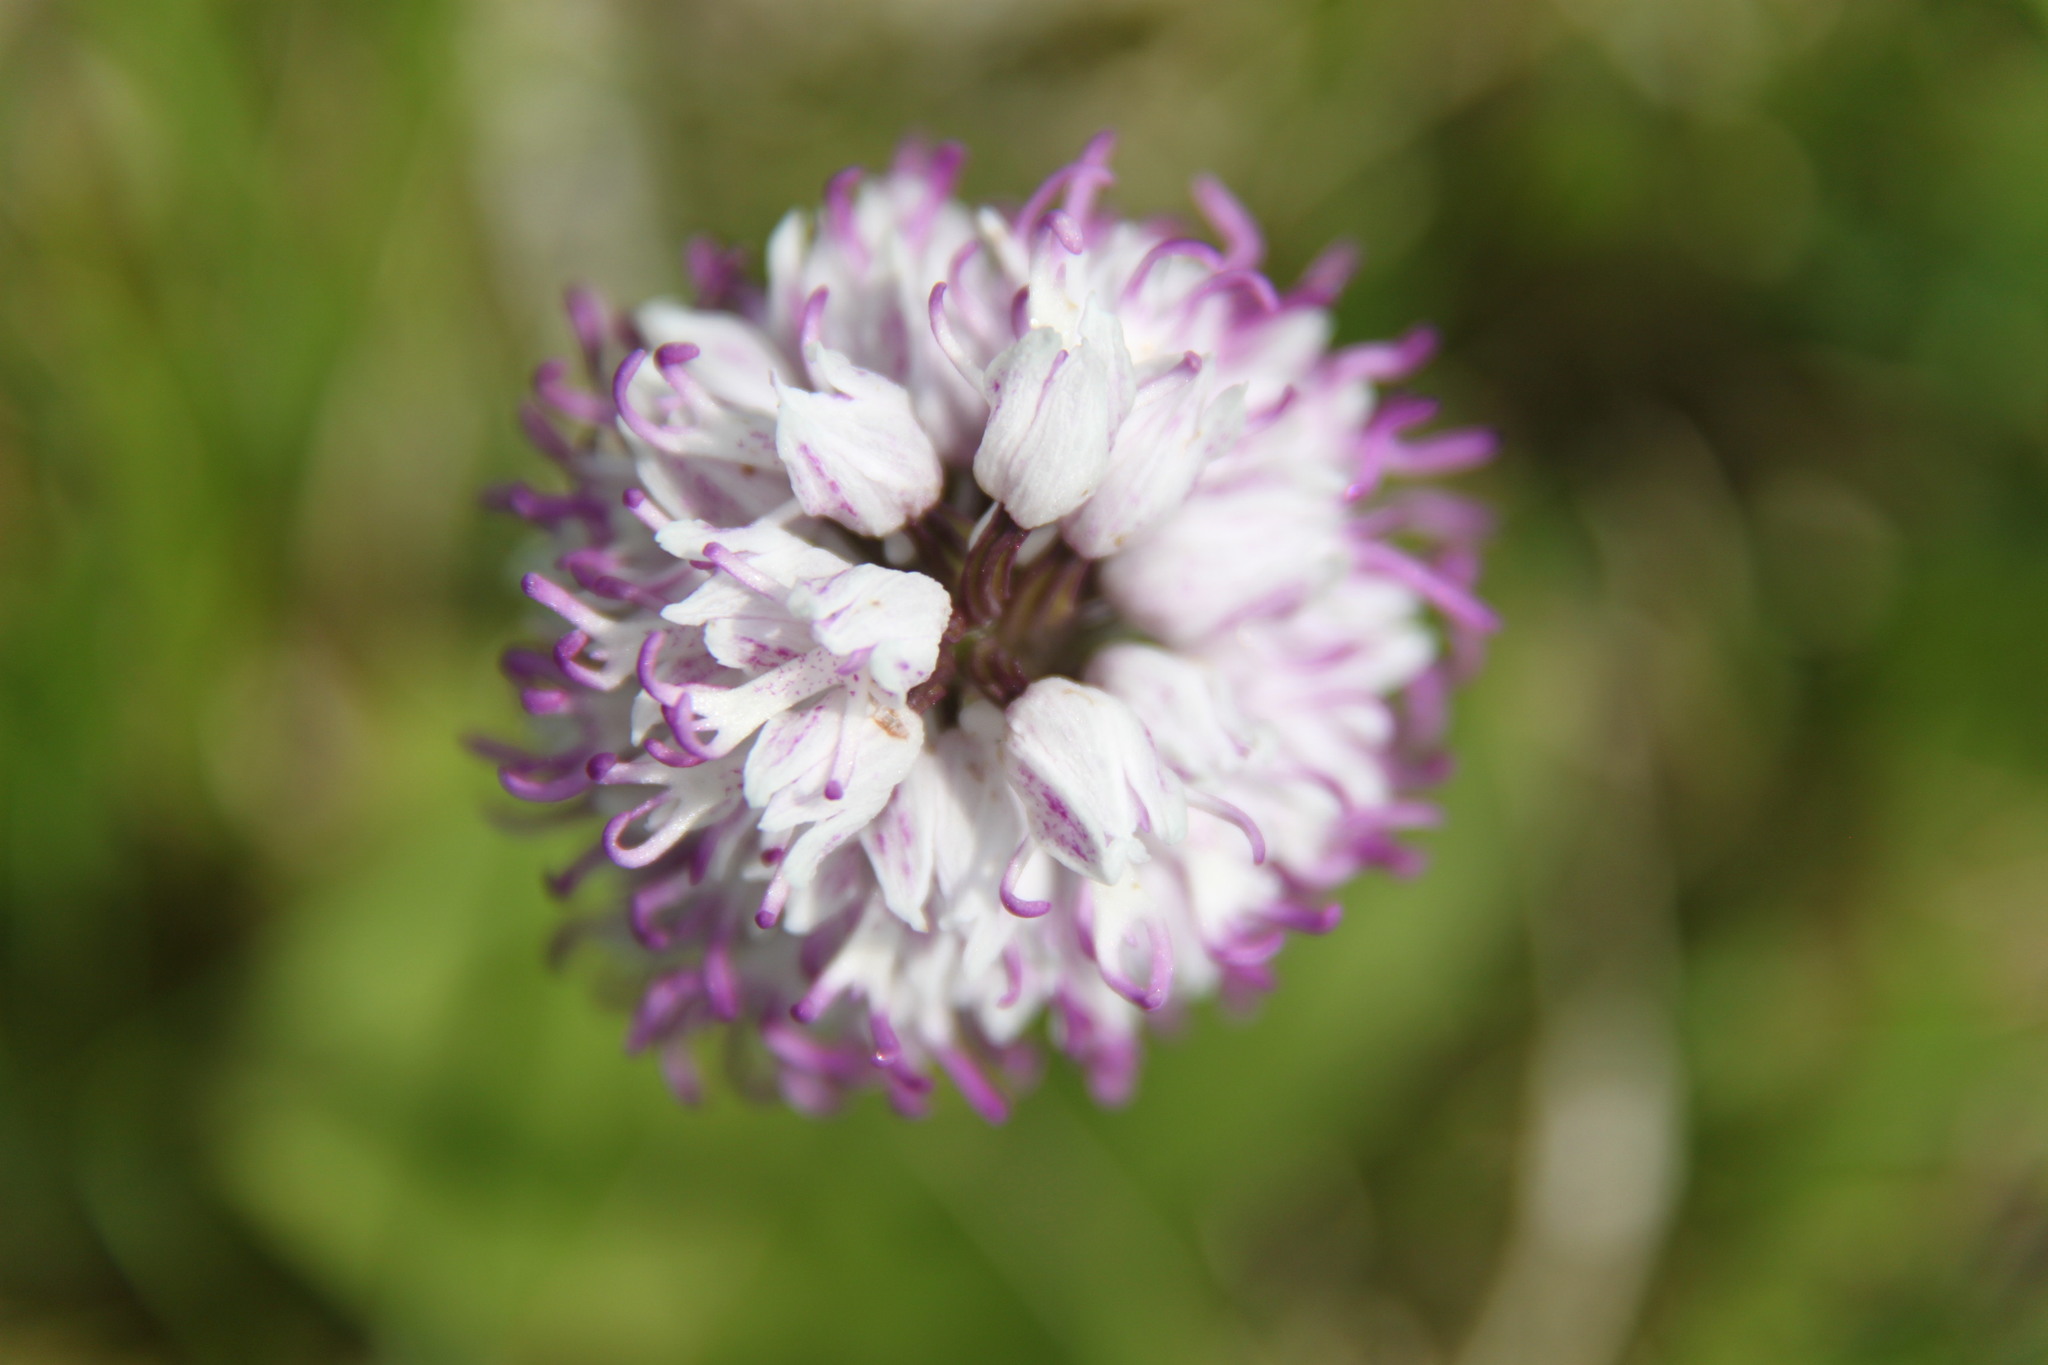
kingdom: Plantae
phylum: Tracheophyta
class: Liliopsida
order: Asparagales
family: Orchidaceae
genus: Orchis
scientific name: Orchis simia
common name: Monkey orchid
